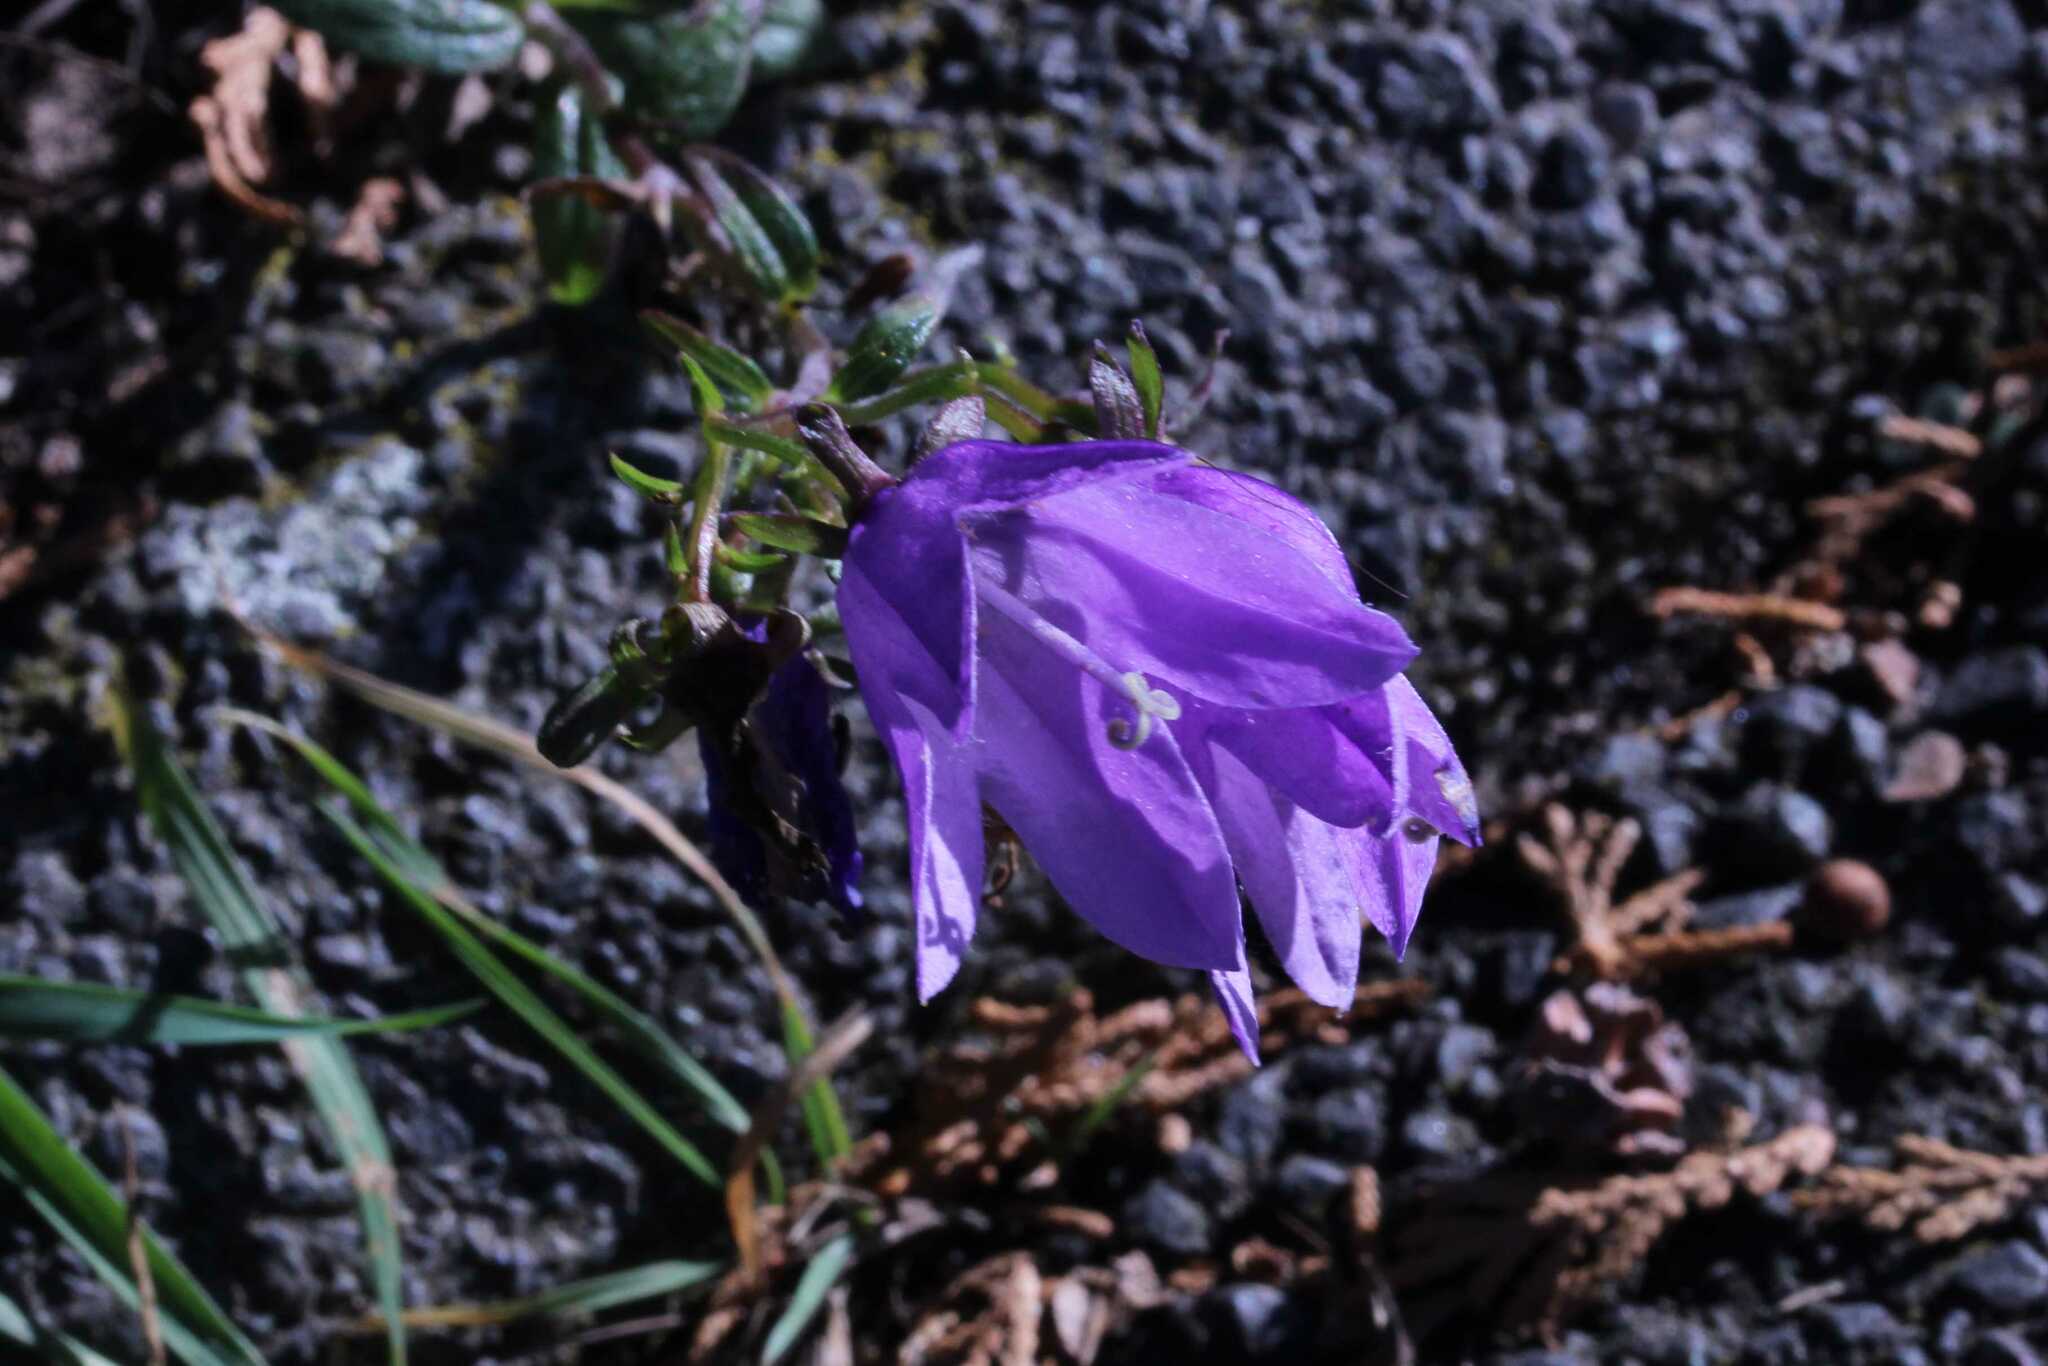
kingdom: Plantae
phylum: Tracheophyta
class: Magnoliopsida
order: Asterales
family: Campanulaceae
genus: Campanula
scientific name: Campanula rapunculoides
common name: Creeping bellflower
